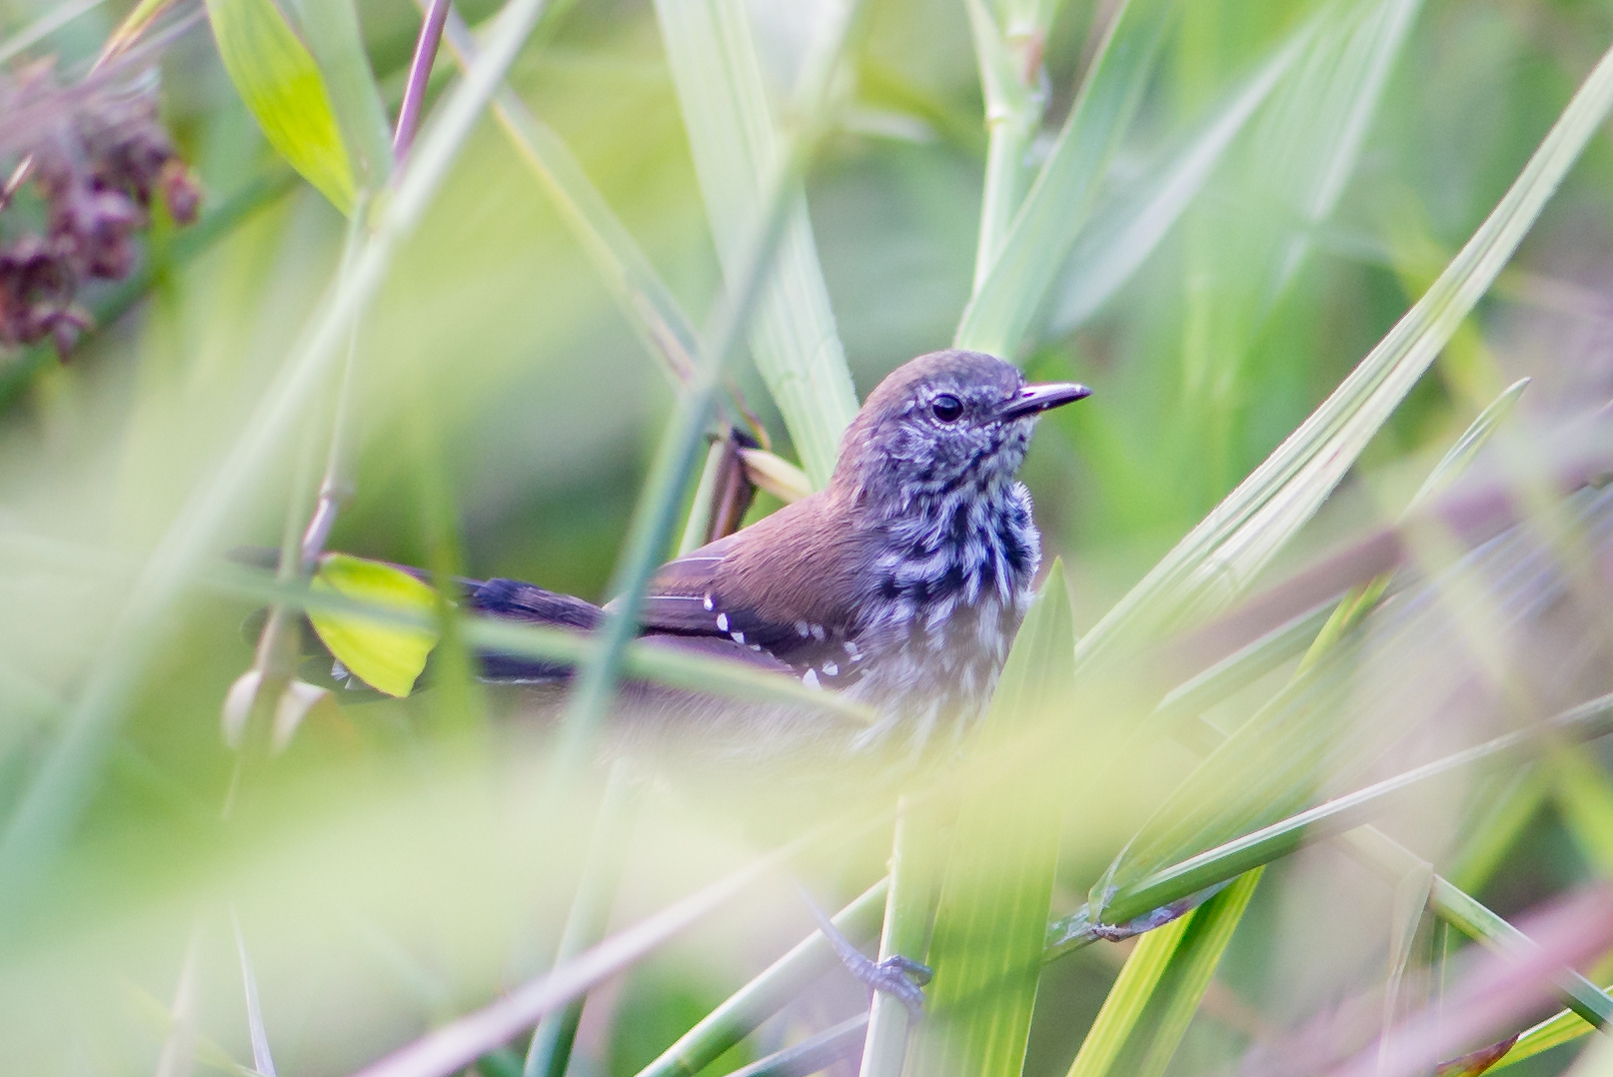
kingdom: Animalia
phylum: Chordata
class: Aves
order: Passeriformes
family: Thamnophilidae
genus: Stymphalornis
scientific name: Stymphalornis acutirostris
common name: Marsh antwren
